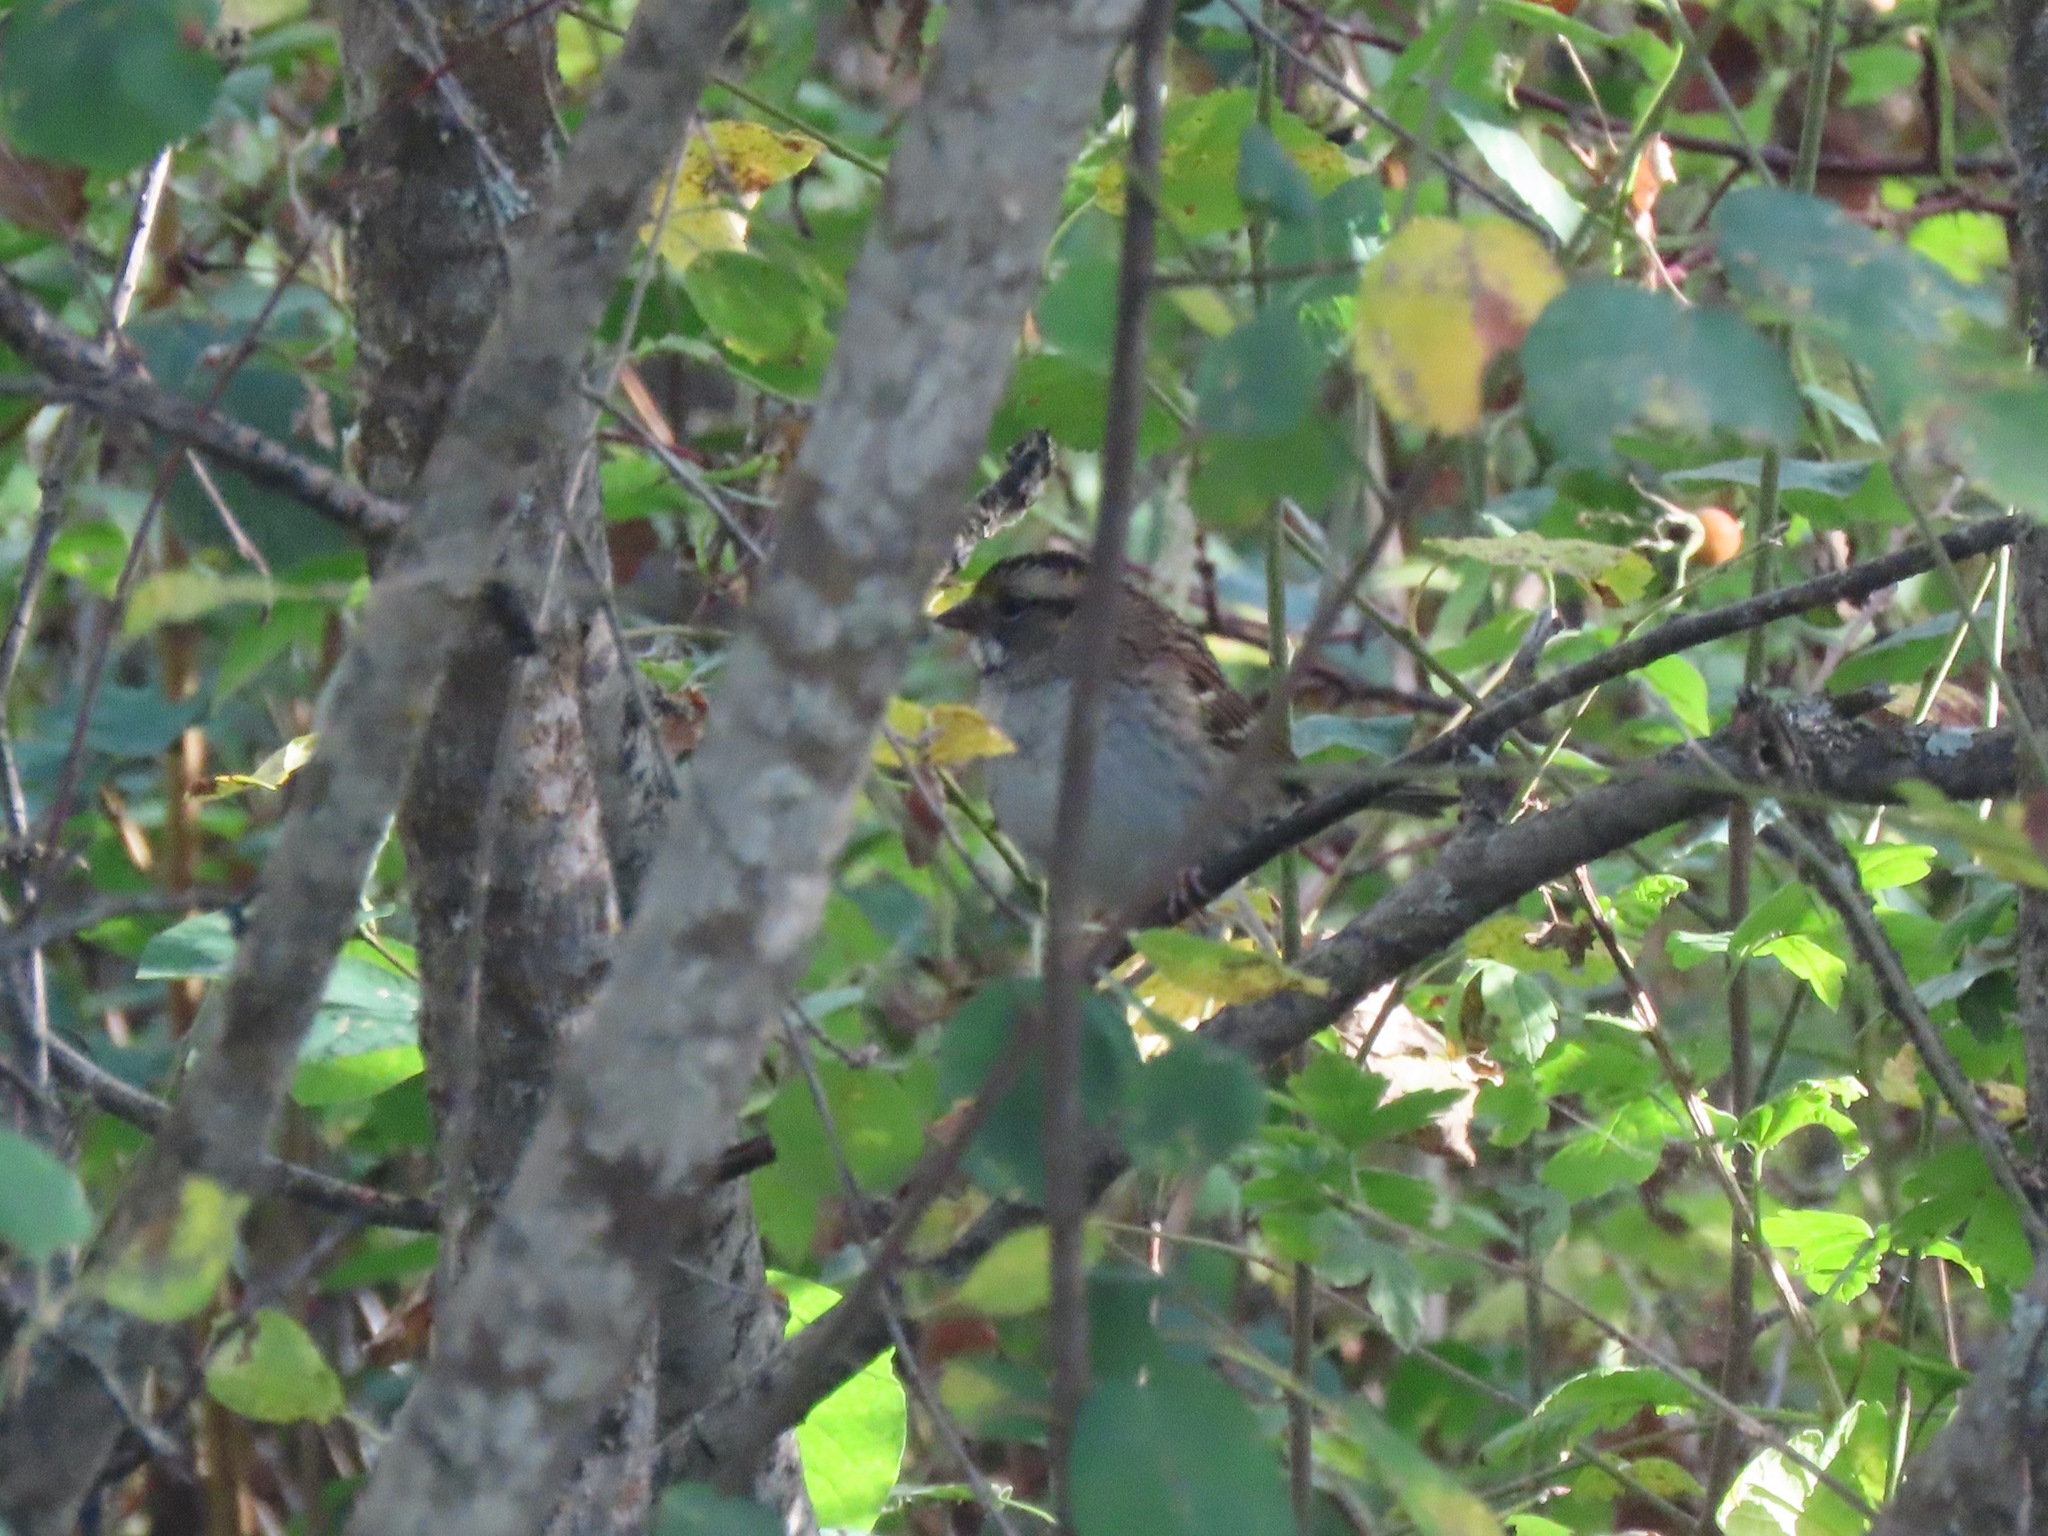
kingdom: Animalia
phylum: Chordata
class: Aves
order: Passeriformes
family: Passerellidae
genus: Zonotrichia
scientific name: Zonotrichia albicollis
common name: White-throated sparrow
